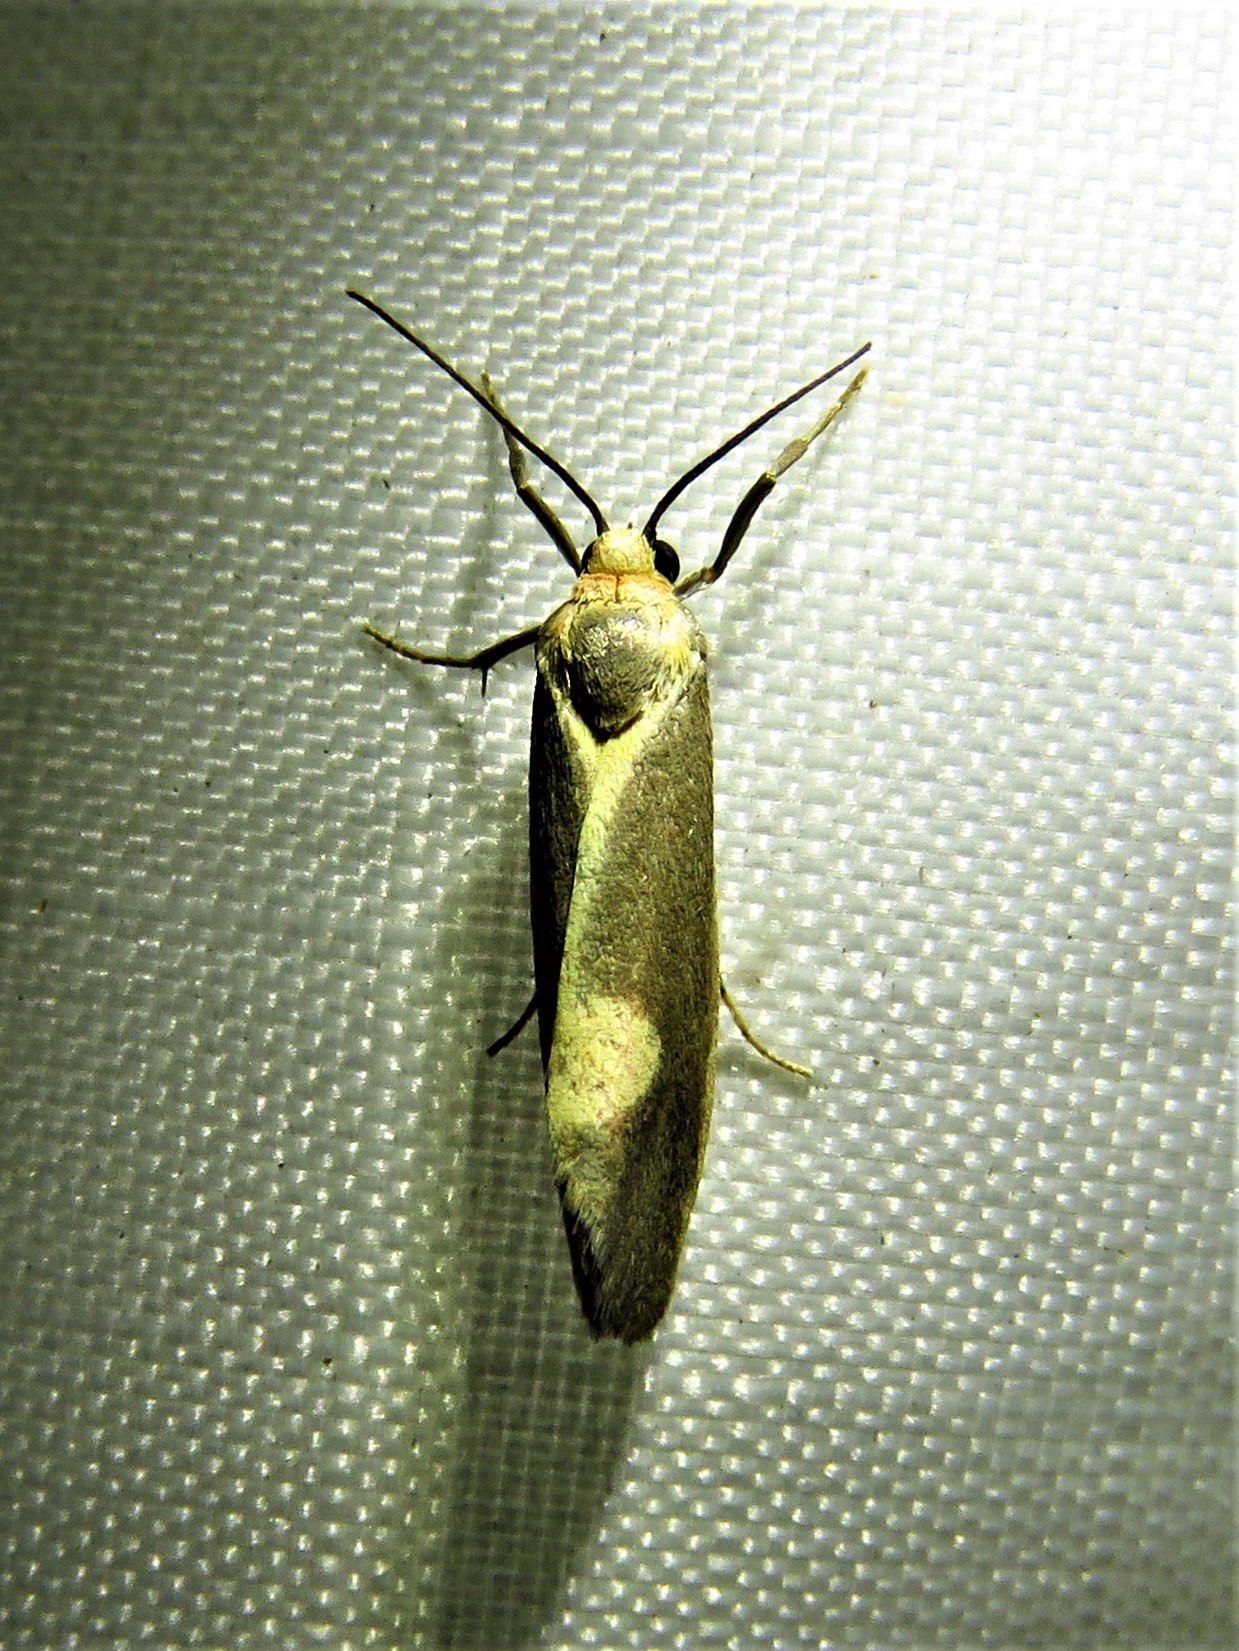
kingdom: Animalia
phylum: Arthropoda
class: Insecta
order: Lepidoptera
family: Erebidae
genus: Cisthene
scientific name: Cisthene plumbea
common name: Lead colored lichen moth
